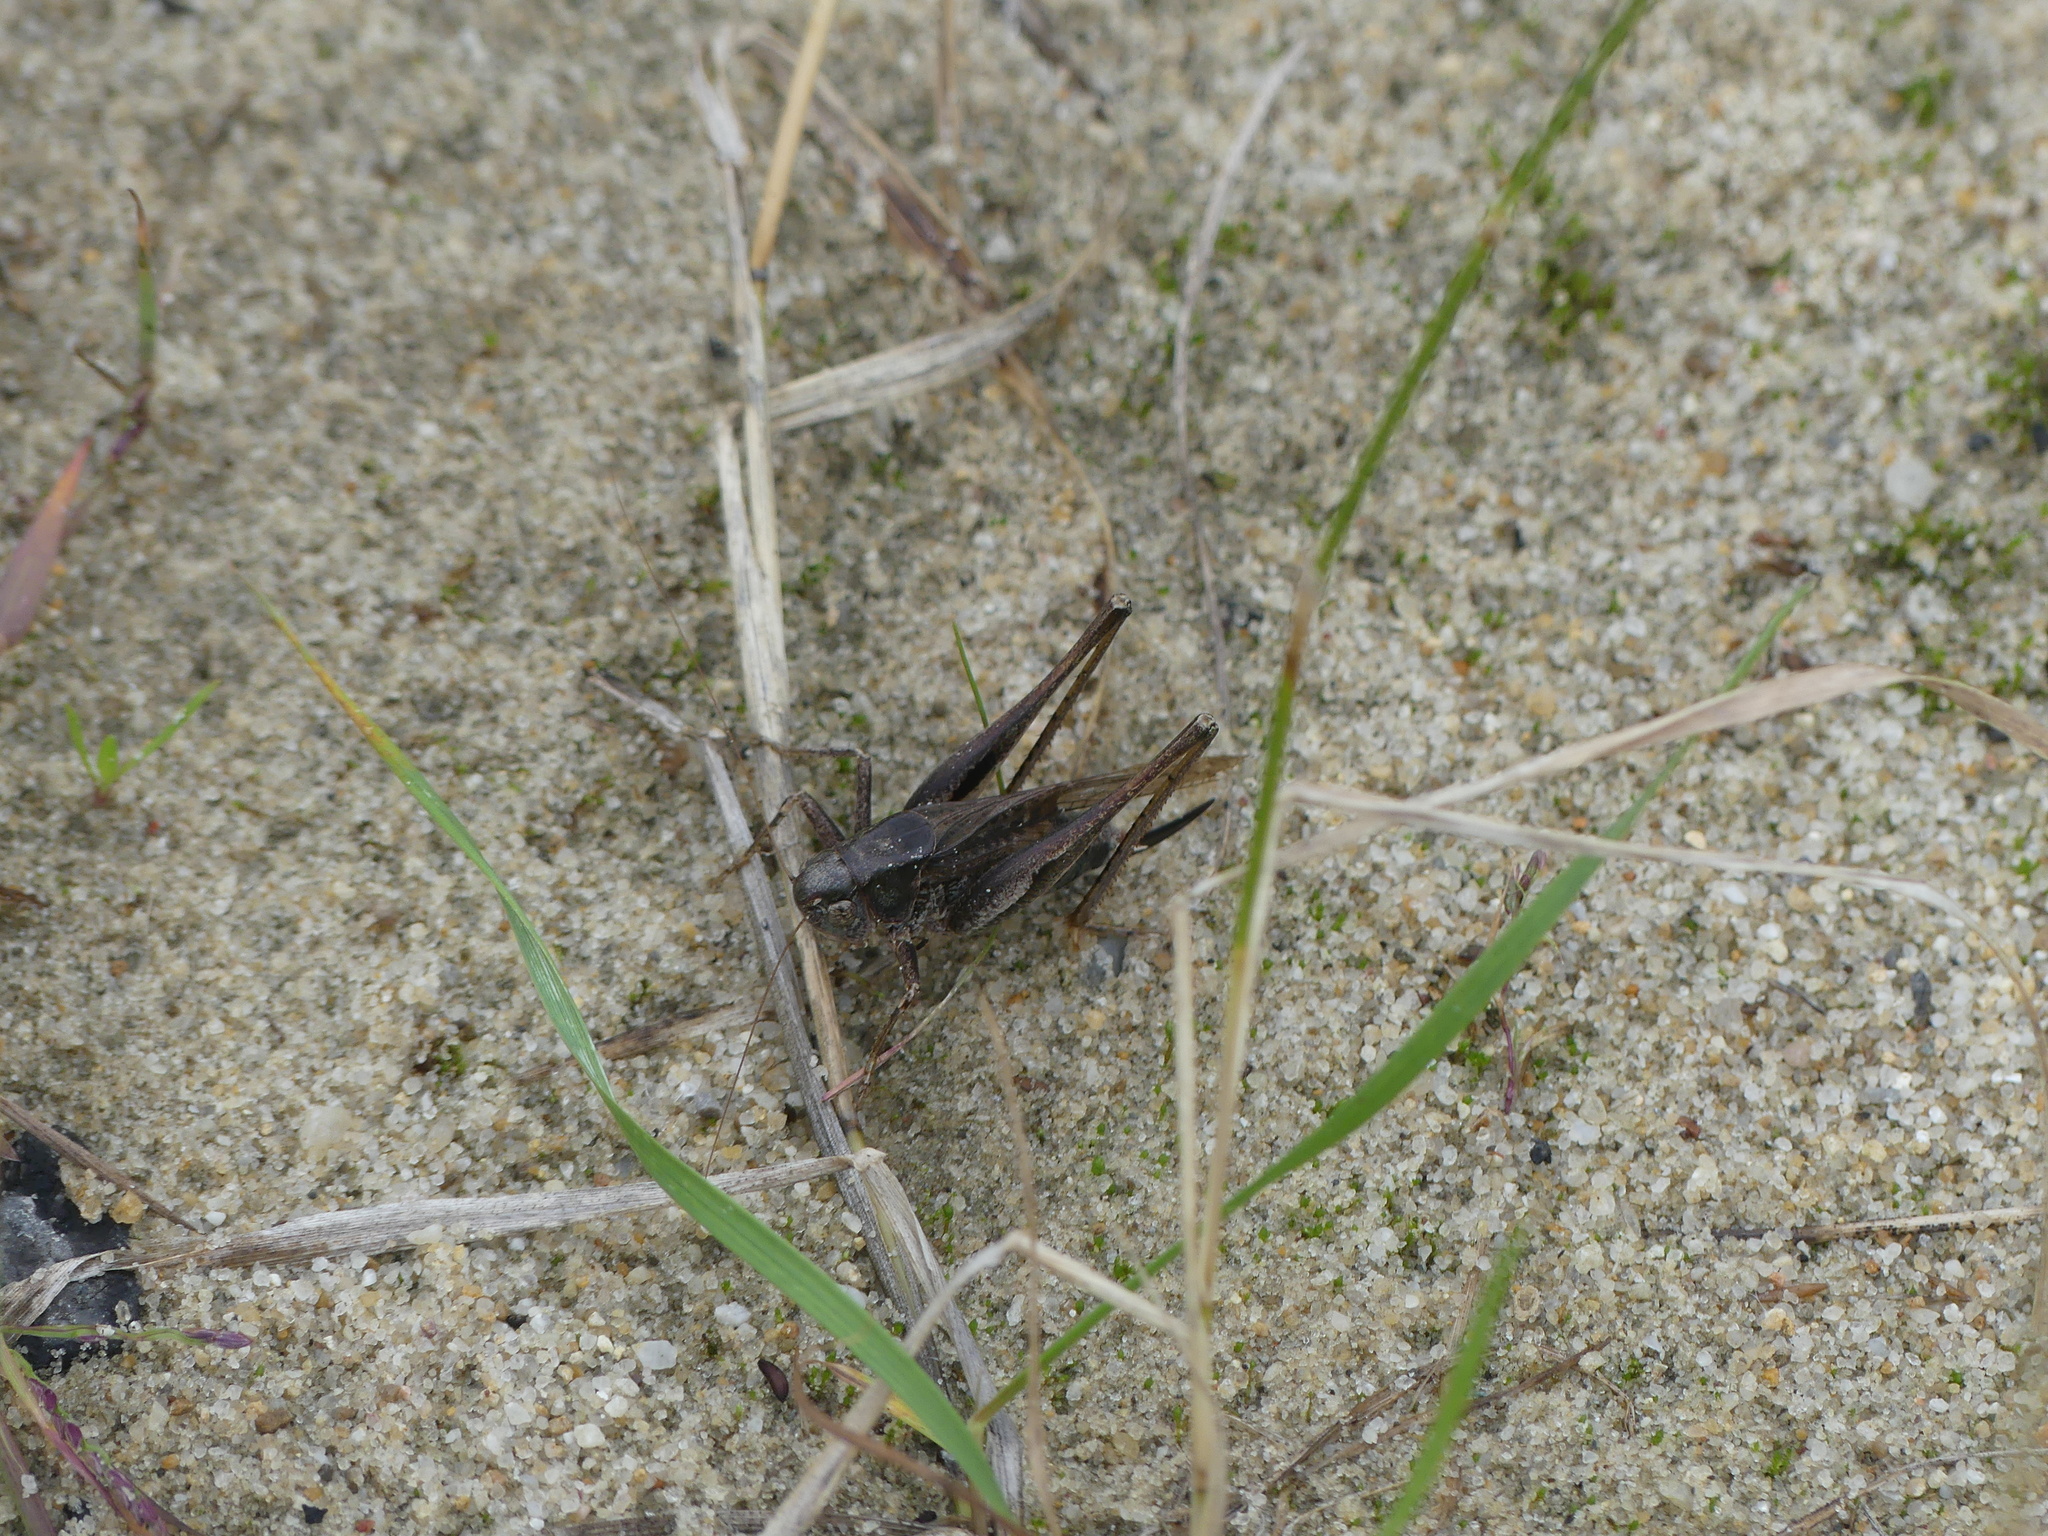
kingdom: Animalia
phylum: Arthropoda
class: Insecta
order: Orthoptera
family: Tettigoniidae
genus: Platycleis
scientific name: Platycleis grisea
